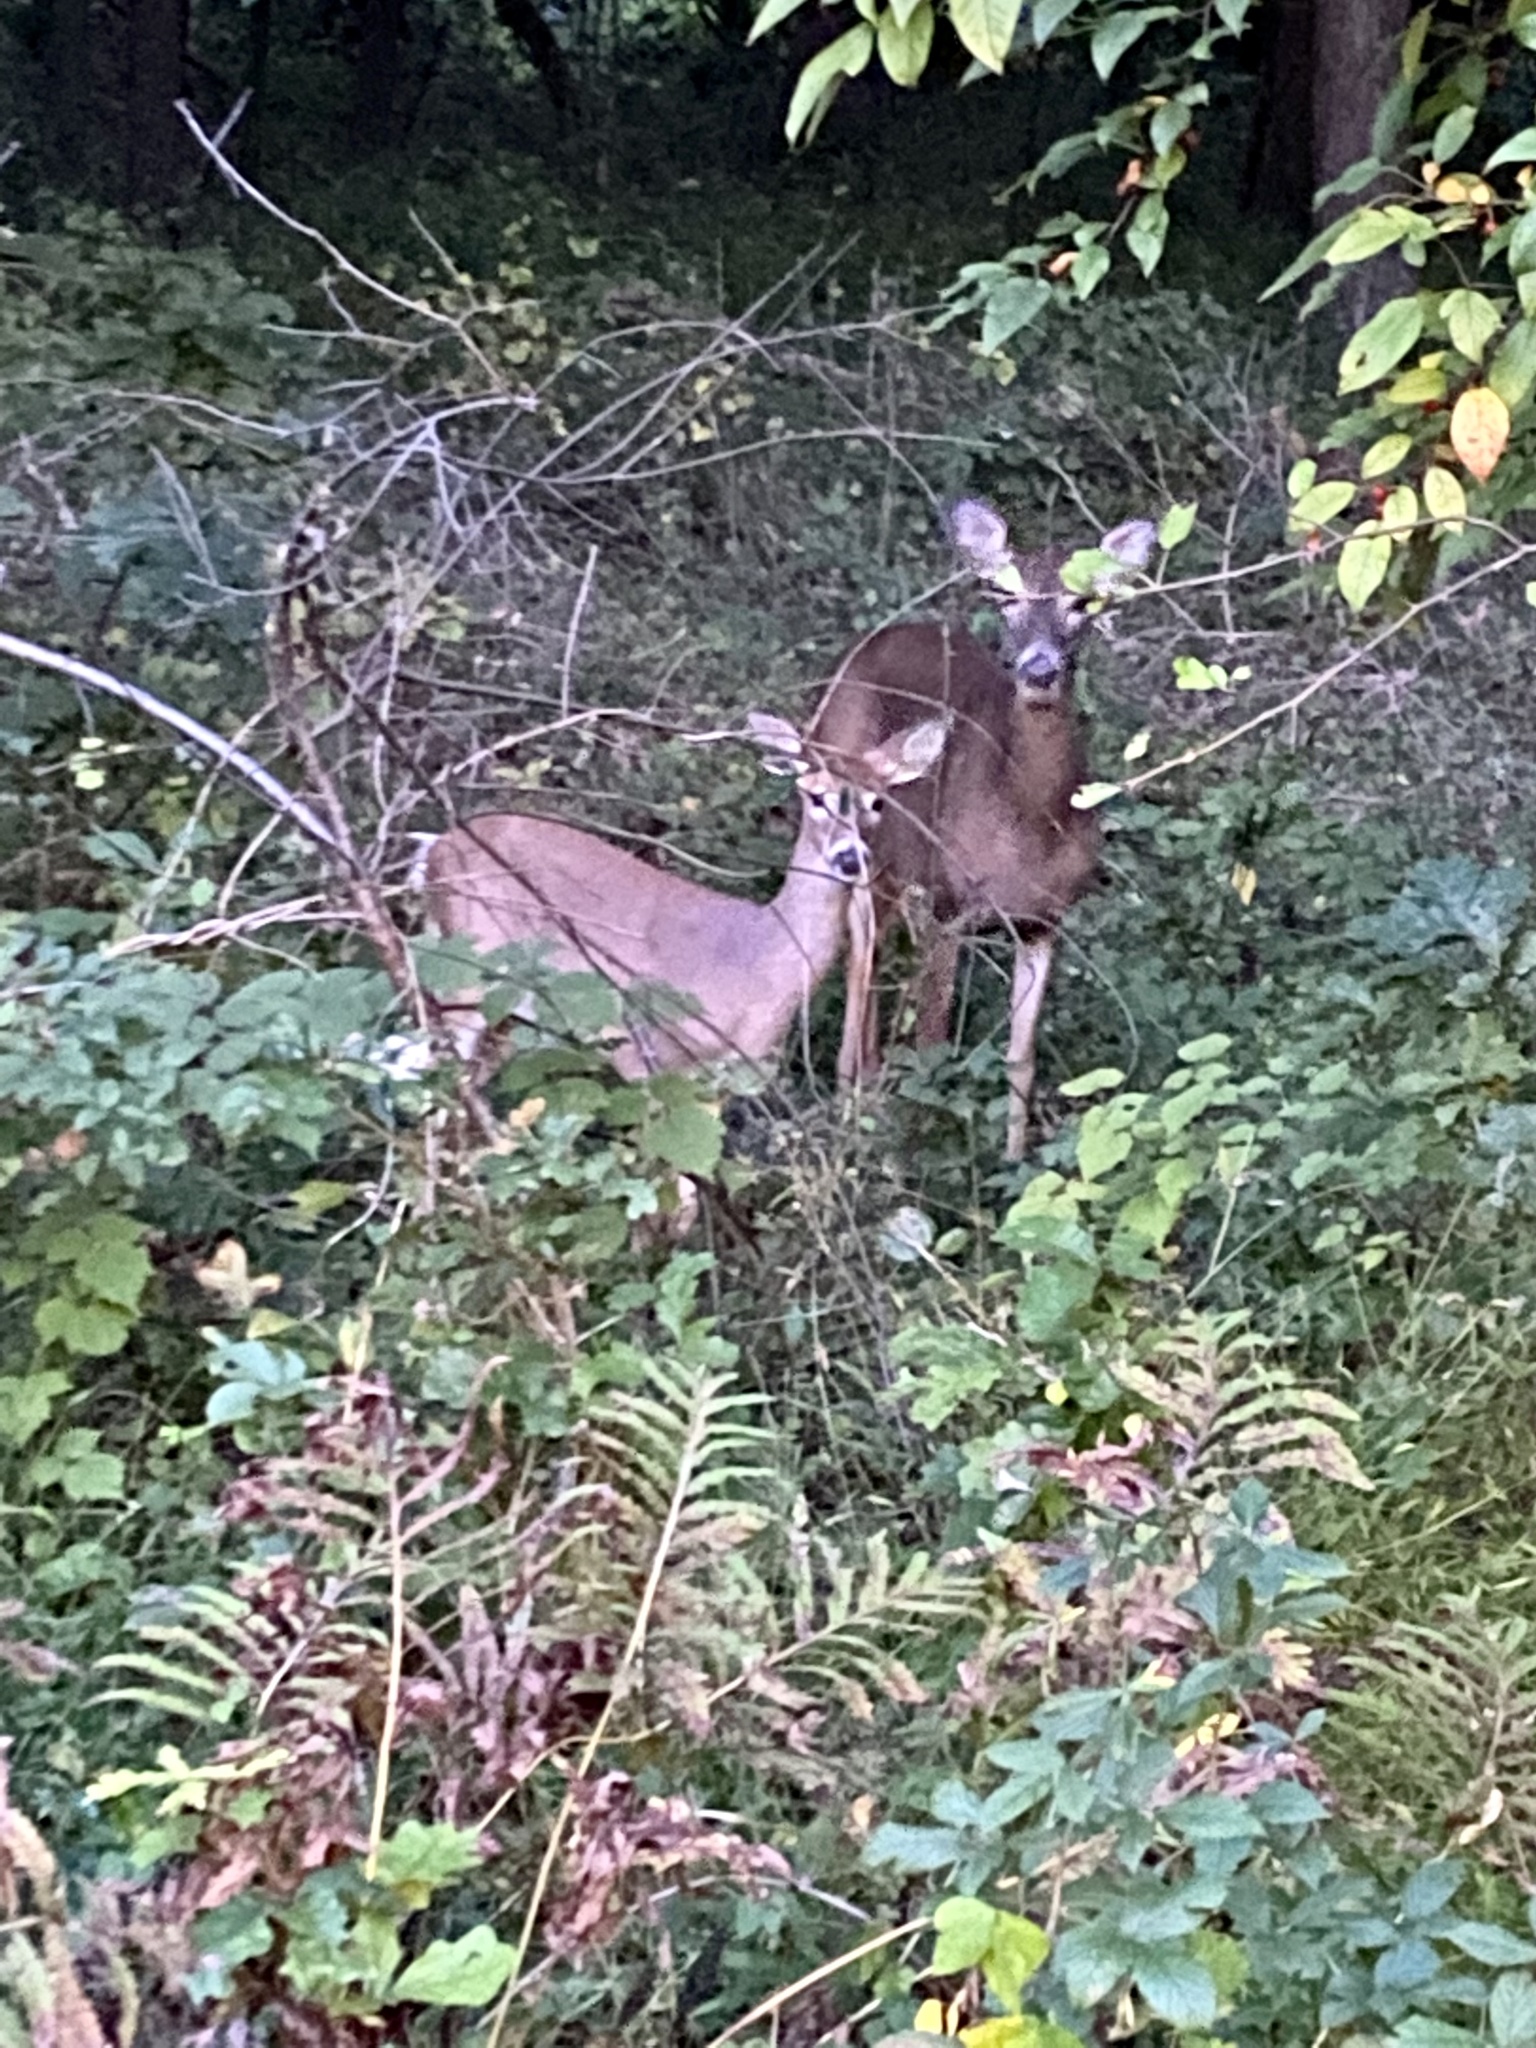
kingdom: Animalia
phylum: Chordata
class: Mammalia
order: Artiodactyla
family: Cervidae
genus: Odocoileus
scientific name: Odocoileus virginianus
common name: White-tailed deer
